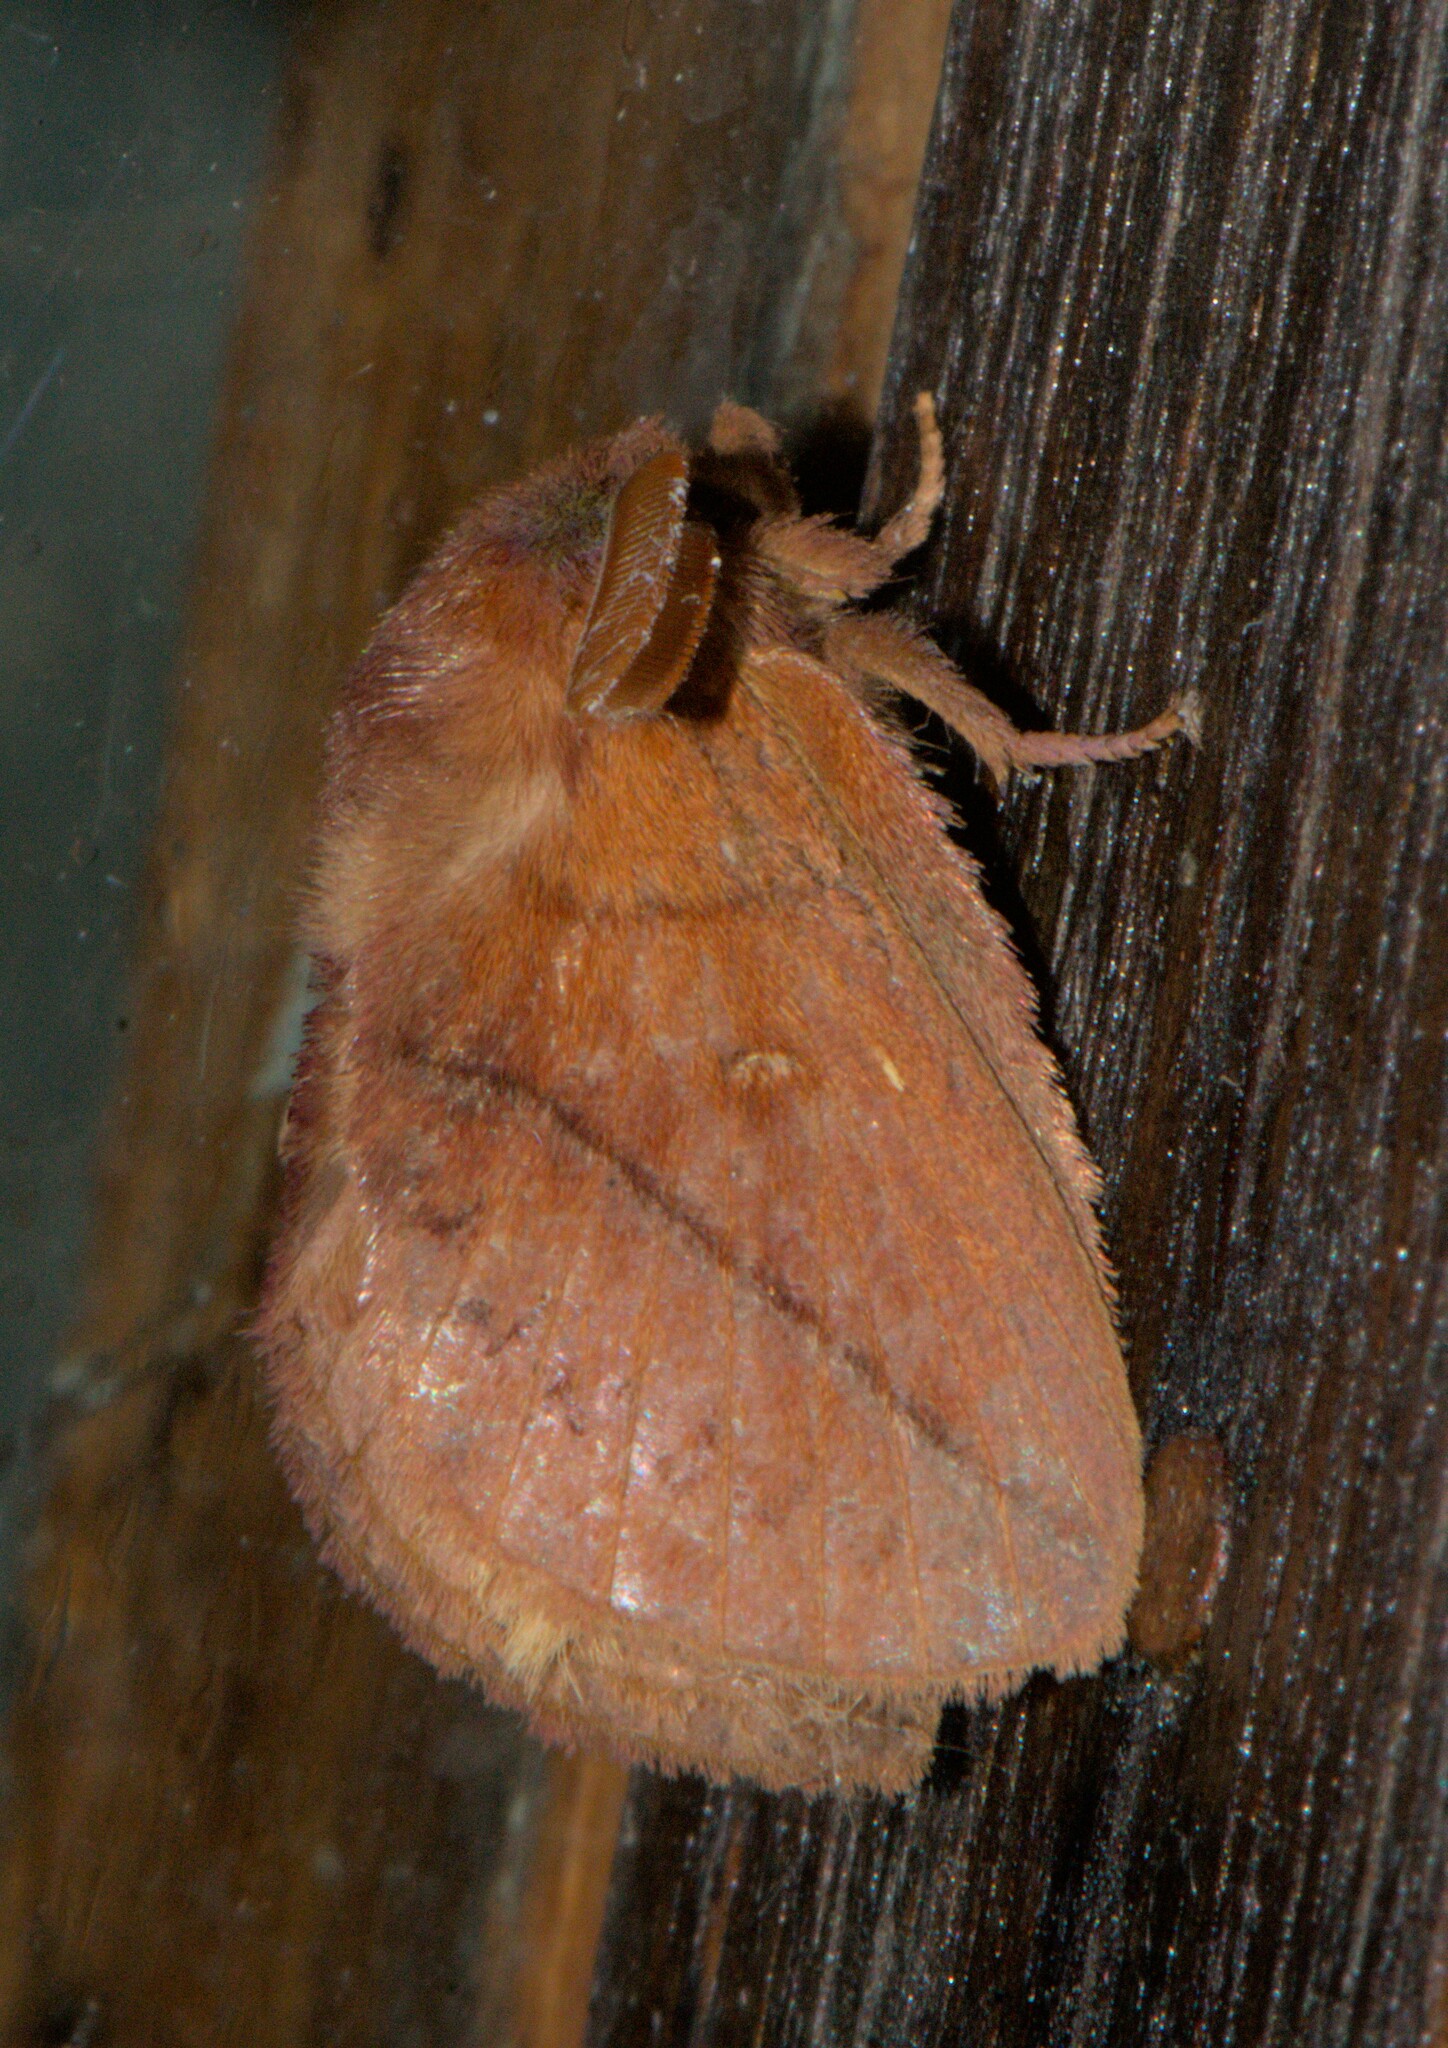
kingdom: Animalia
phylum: Arthropoda
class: Insecta
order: Lepidoptera
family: Lasiocampidae
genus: Euthrix
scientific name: Euthrix fossa
